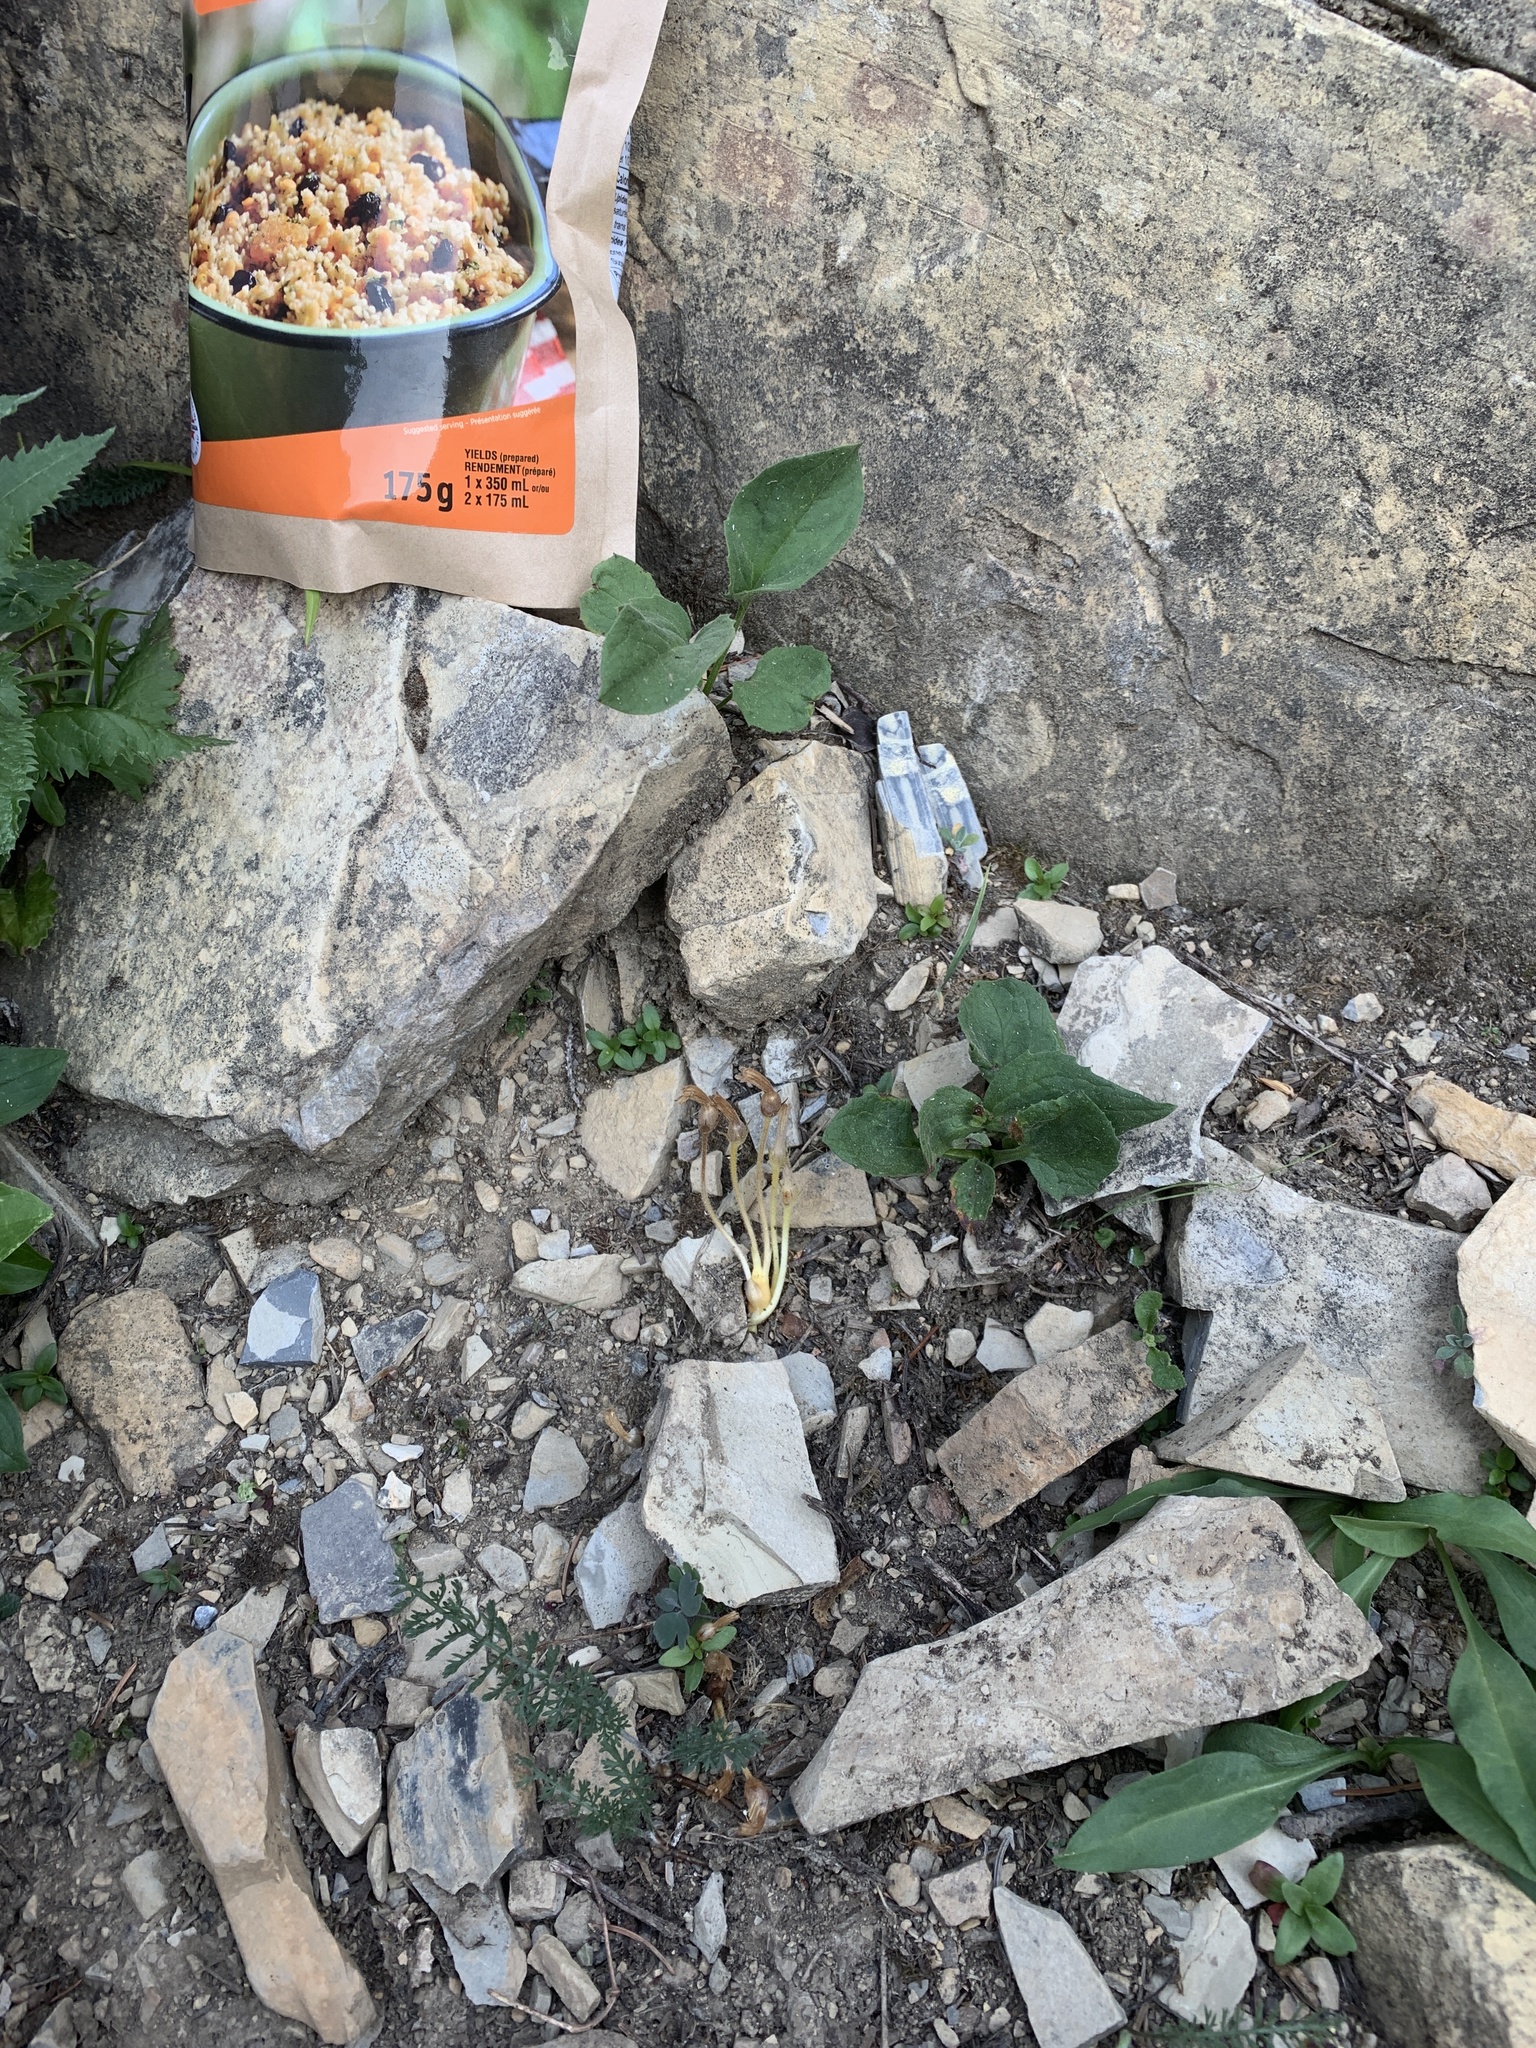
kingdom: Plantae
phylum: Tracheophyta
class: Magnoliopsida
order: Lamiales
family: Orobanchaceae
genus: Aphyllon
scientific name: Aphyllon uniflorum
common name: One-flowered broomrape
